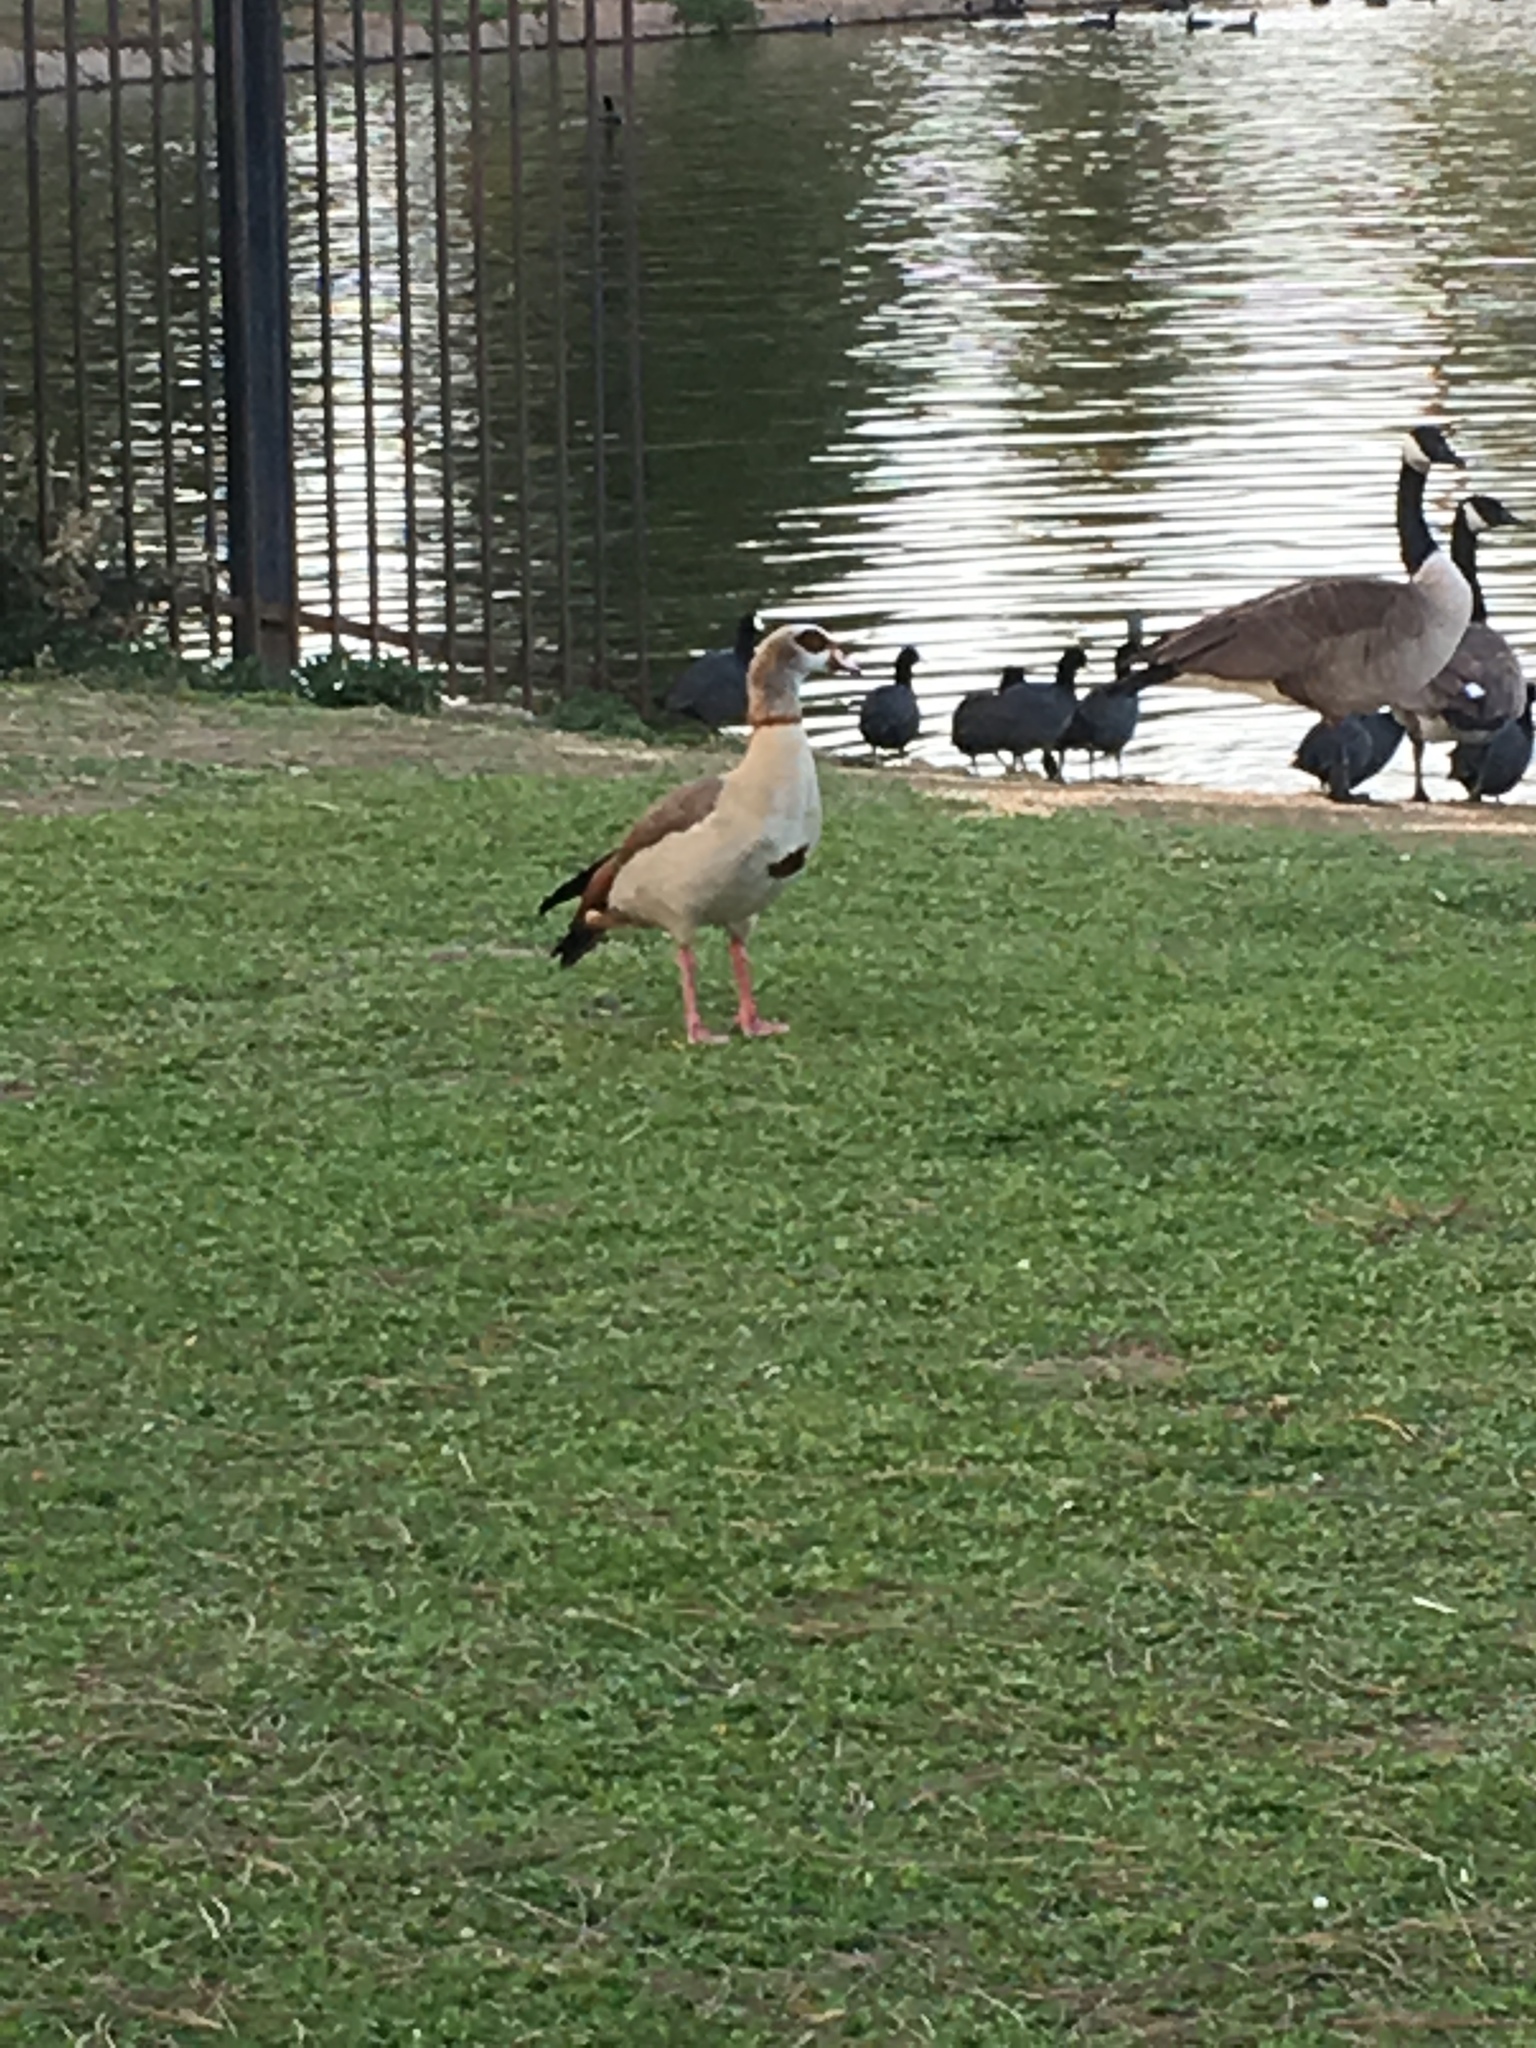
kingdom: Animalia
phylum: Chordata
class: Aves
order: Anseriformes
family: Anatidae
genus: Alopochen
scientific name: Alopochen aegyptiaca
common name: Egyptian goose
